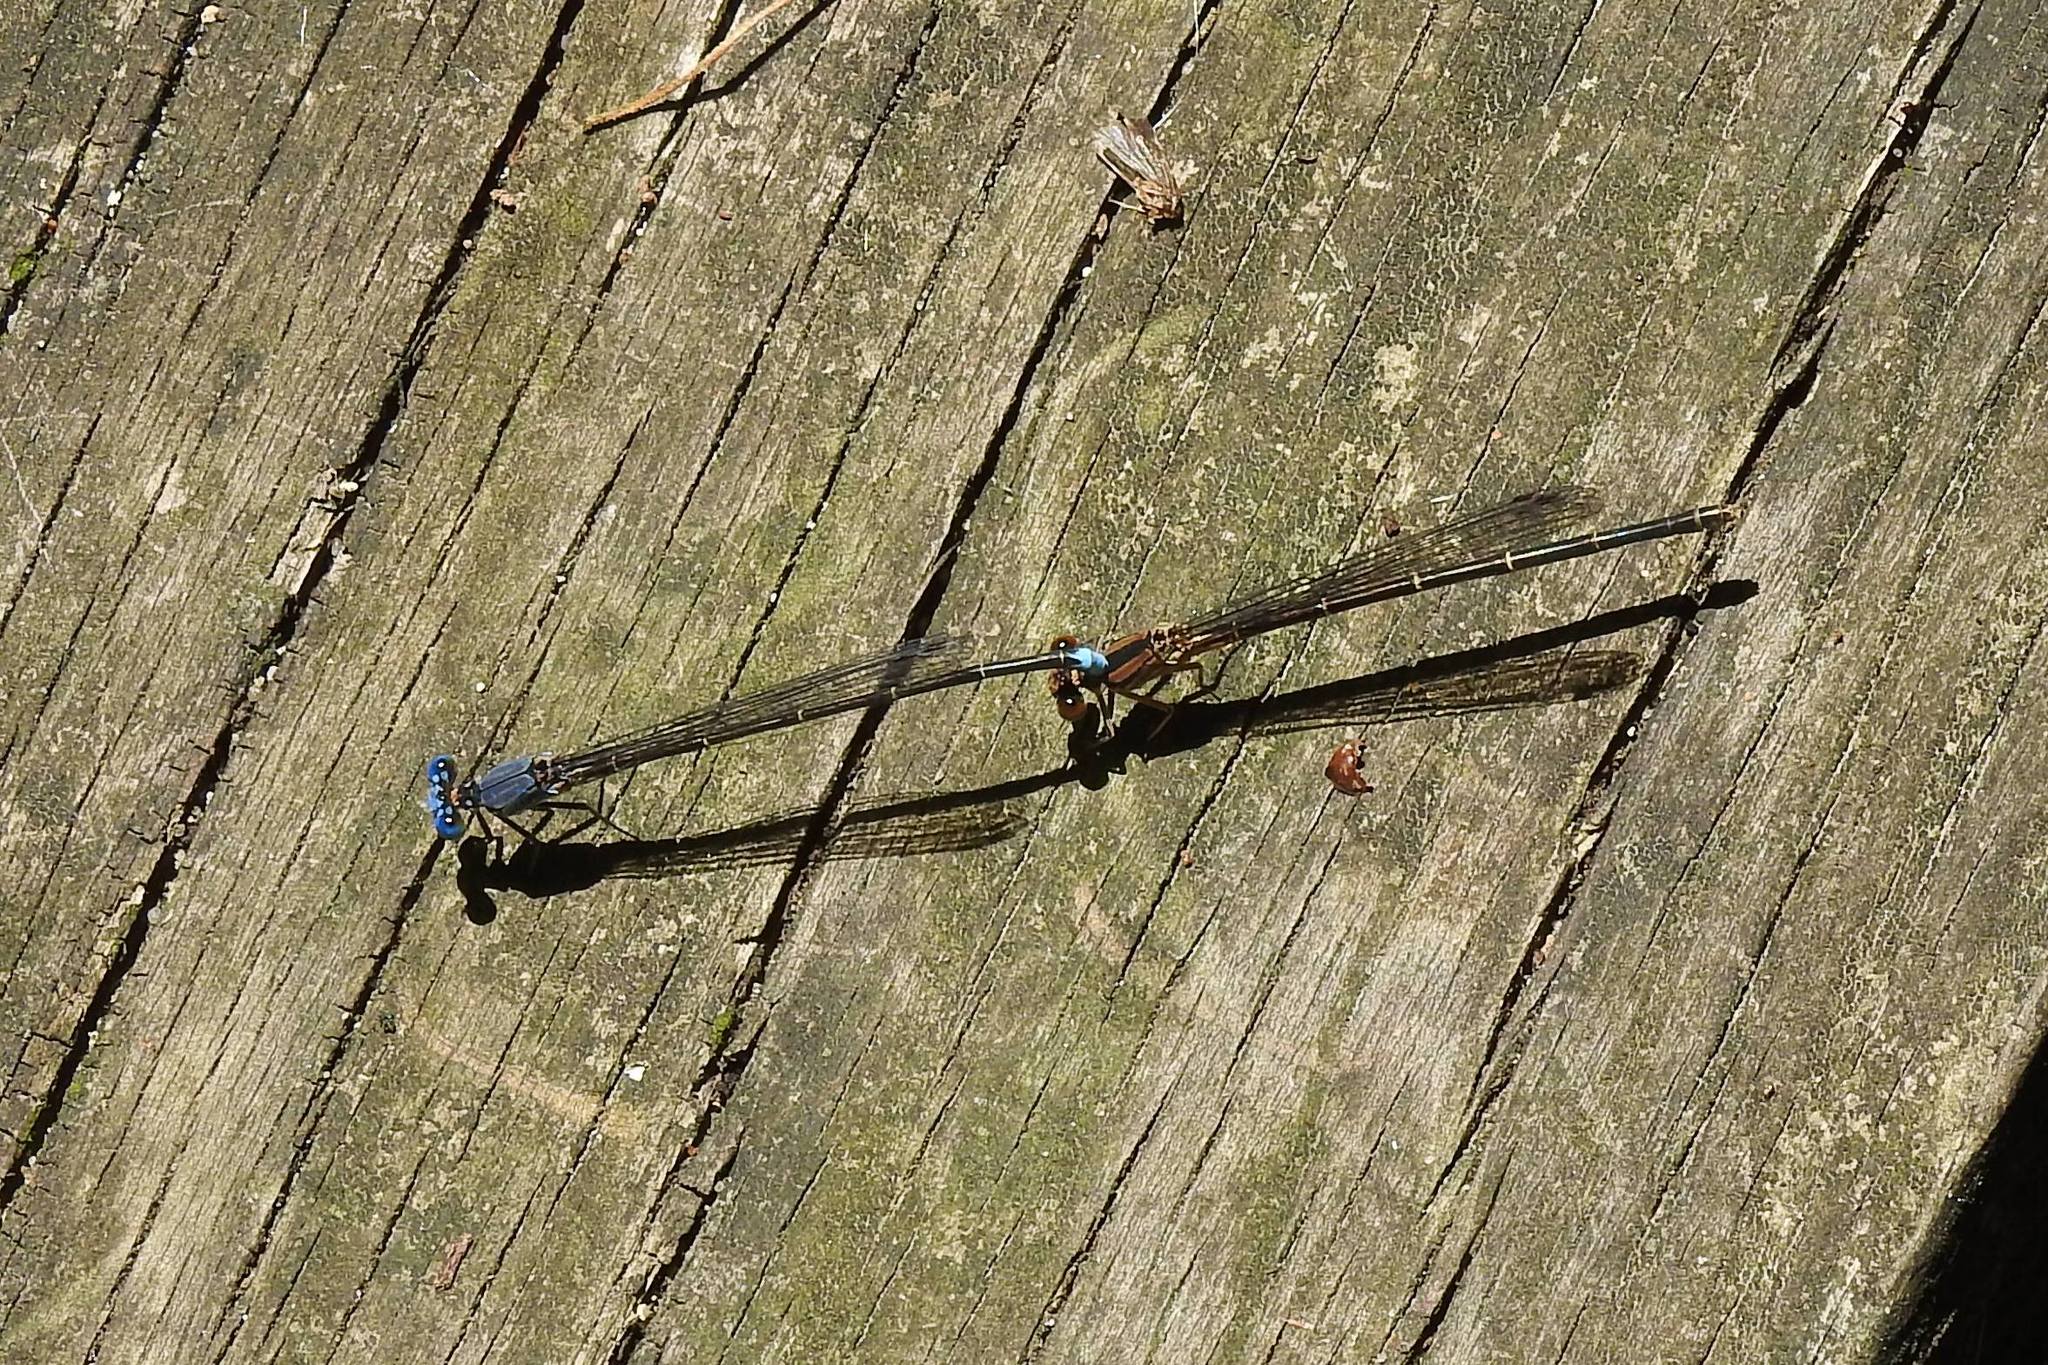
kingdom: Animalia
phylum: Arthropoda
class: Insecta
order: Odonata
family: Coenagrionidae
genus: Argia
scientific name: Argia apicalis
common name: Blue-fronted dancer
